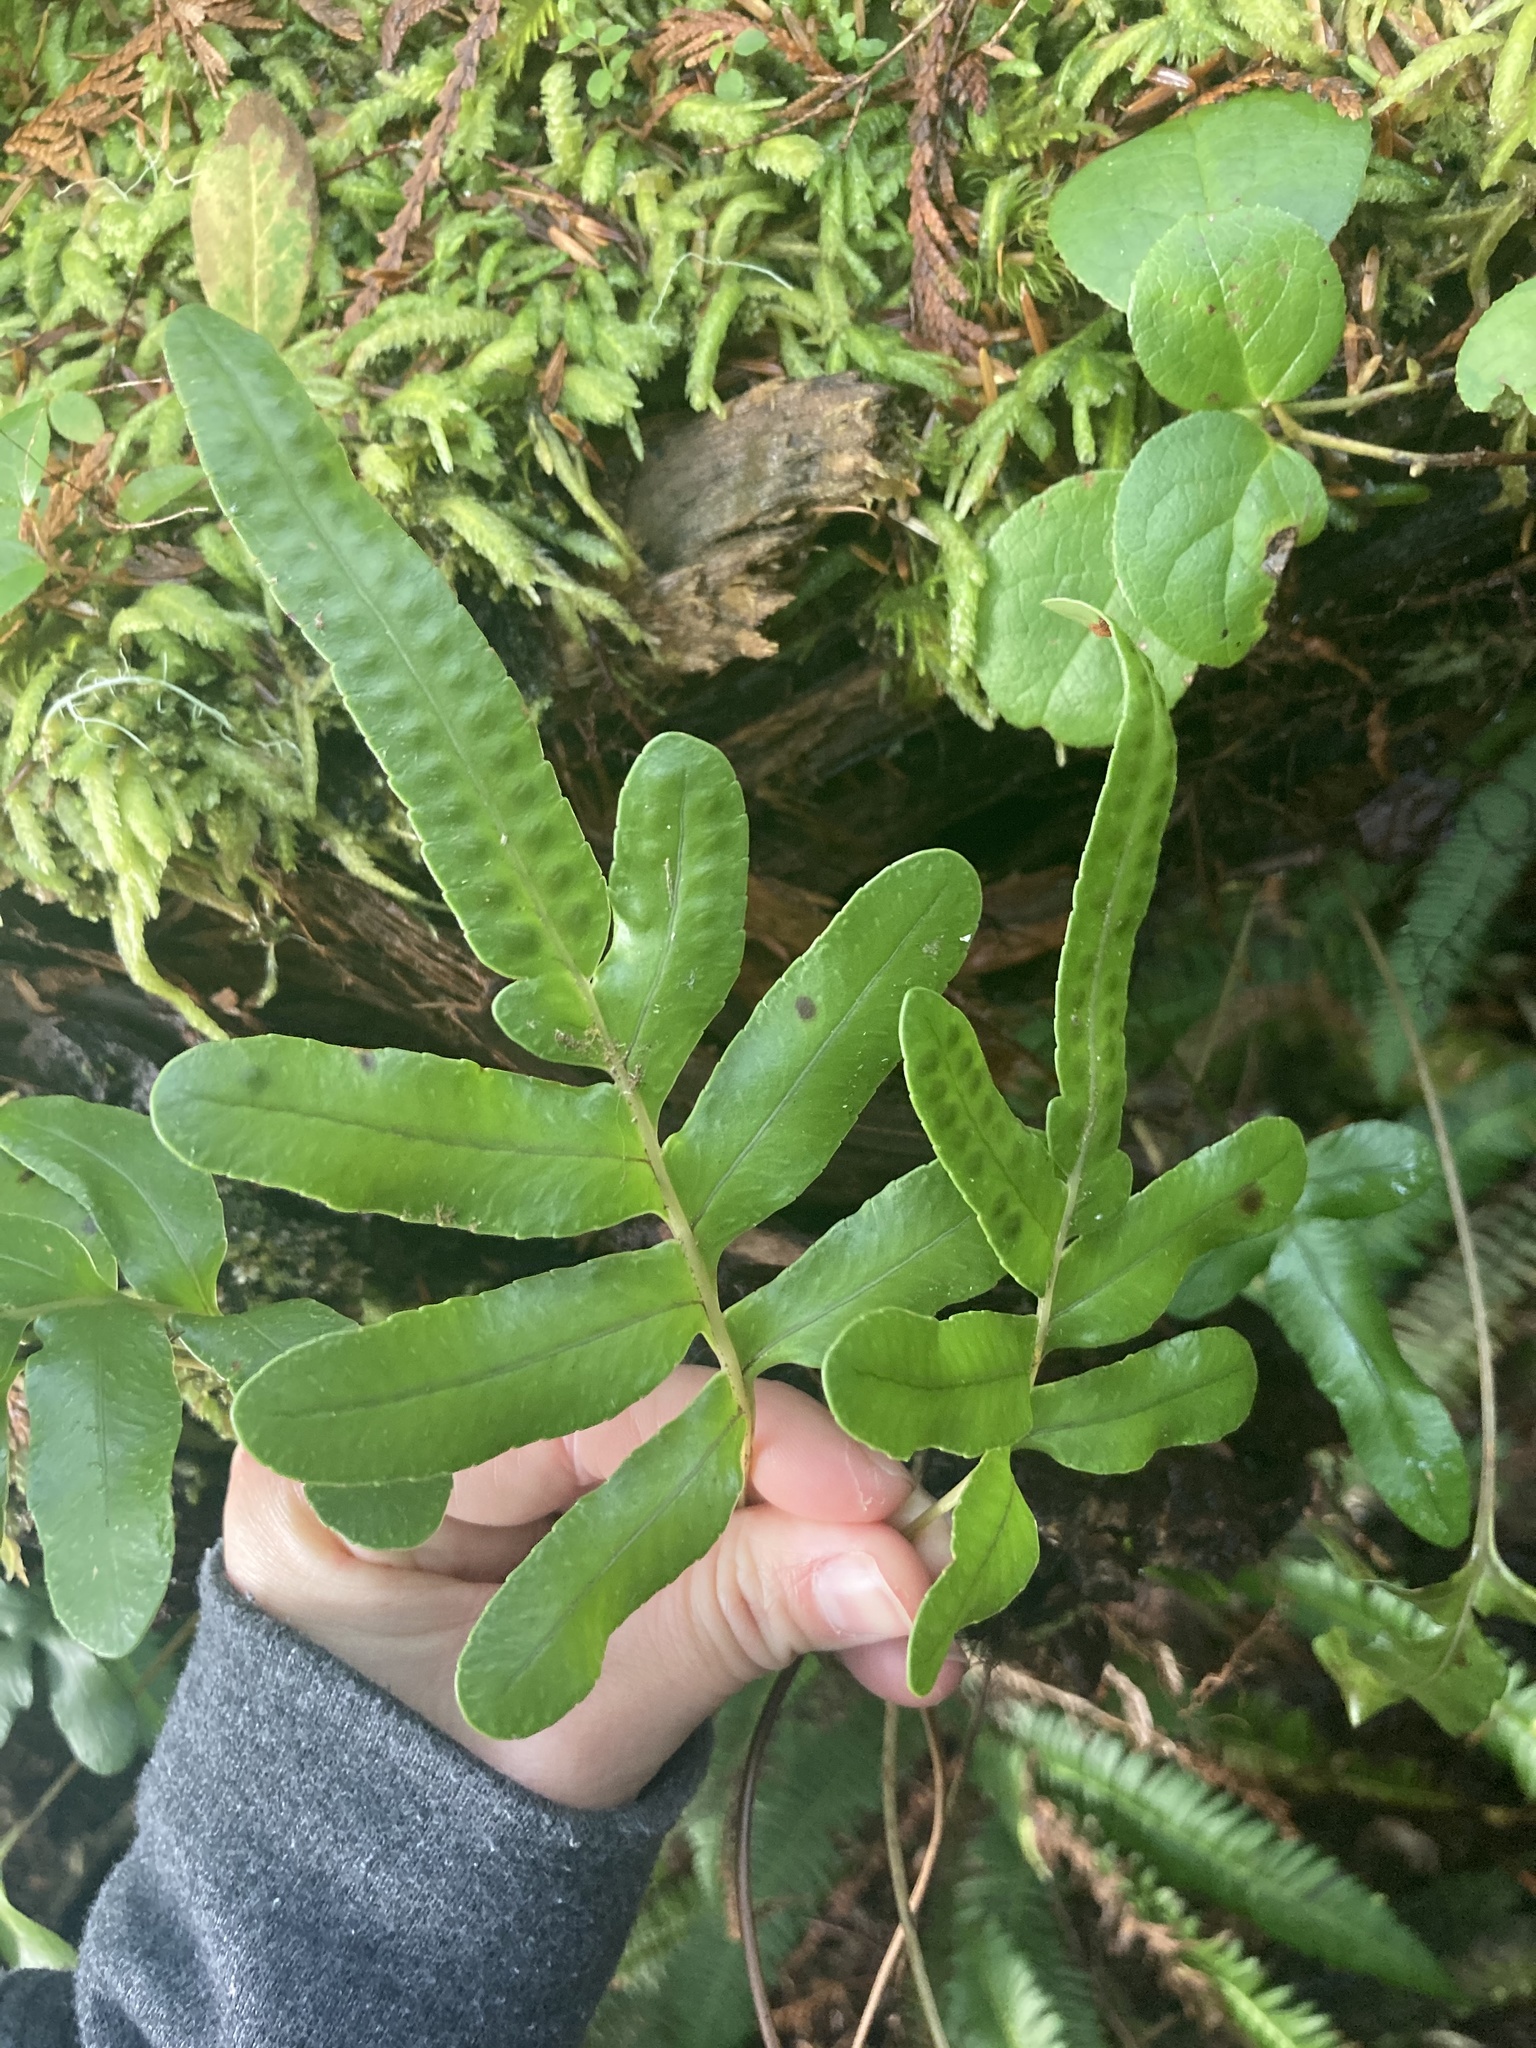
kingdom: Plantae
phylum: Tracheophyta
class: Polypodiopsida
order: Polypodiales
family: Polypodiaceae
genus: Polypodium
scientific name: Polypodium scouleri
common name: Scouler's polypody
